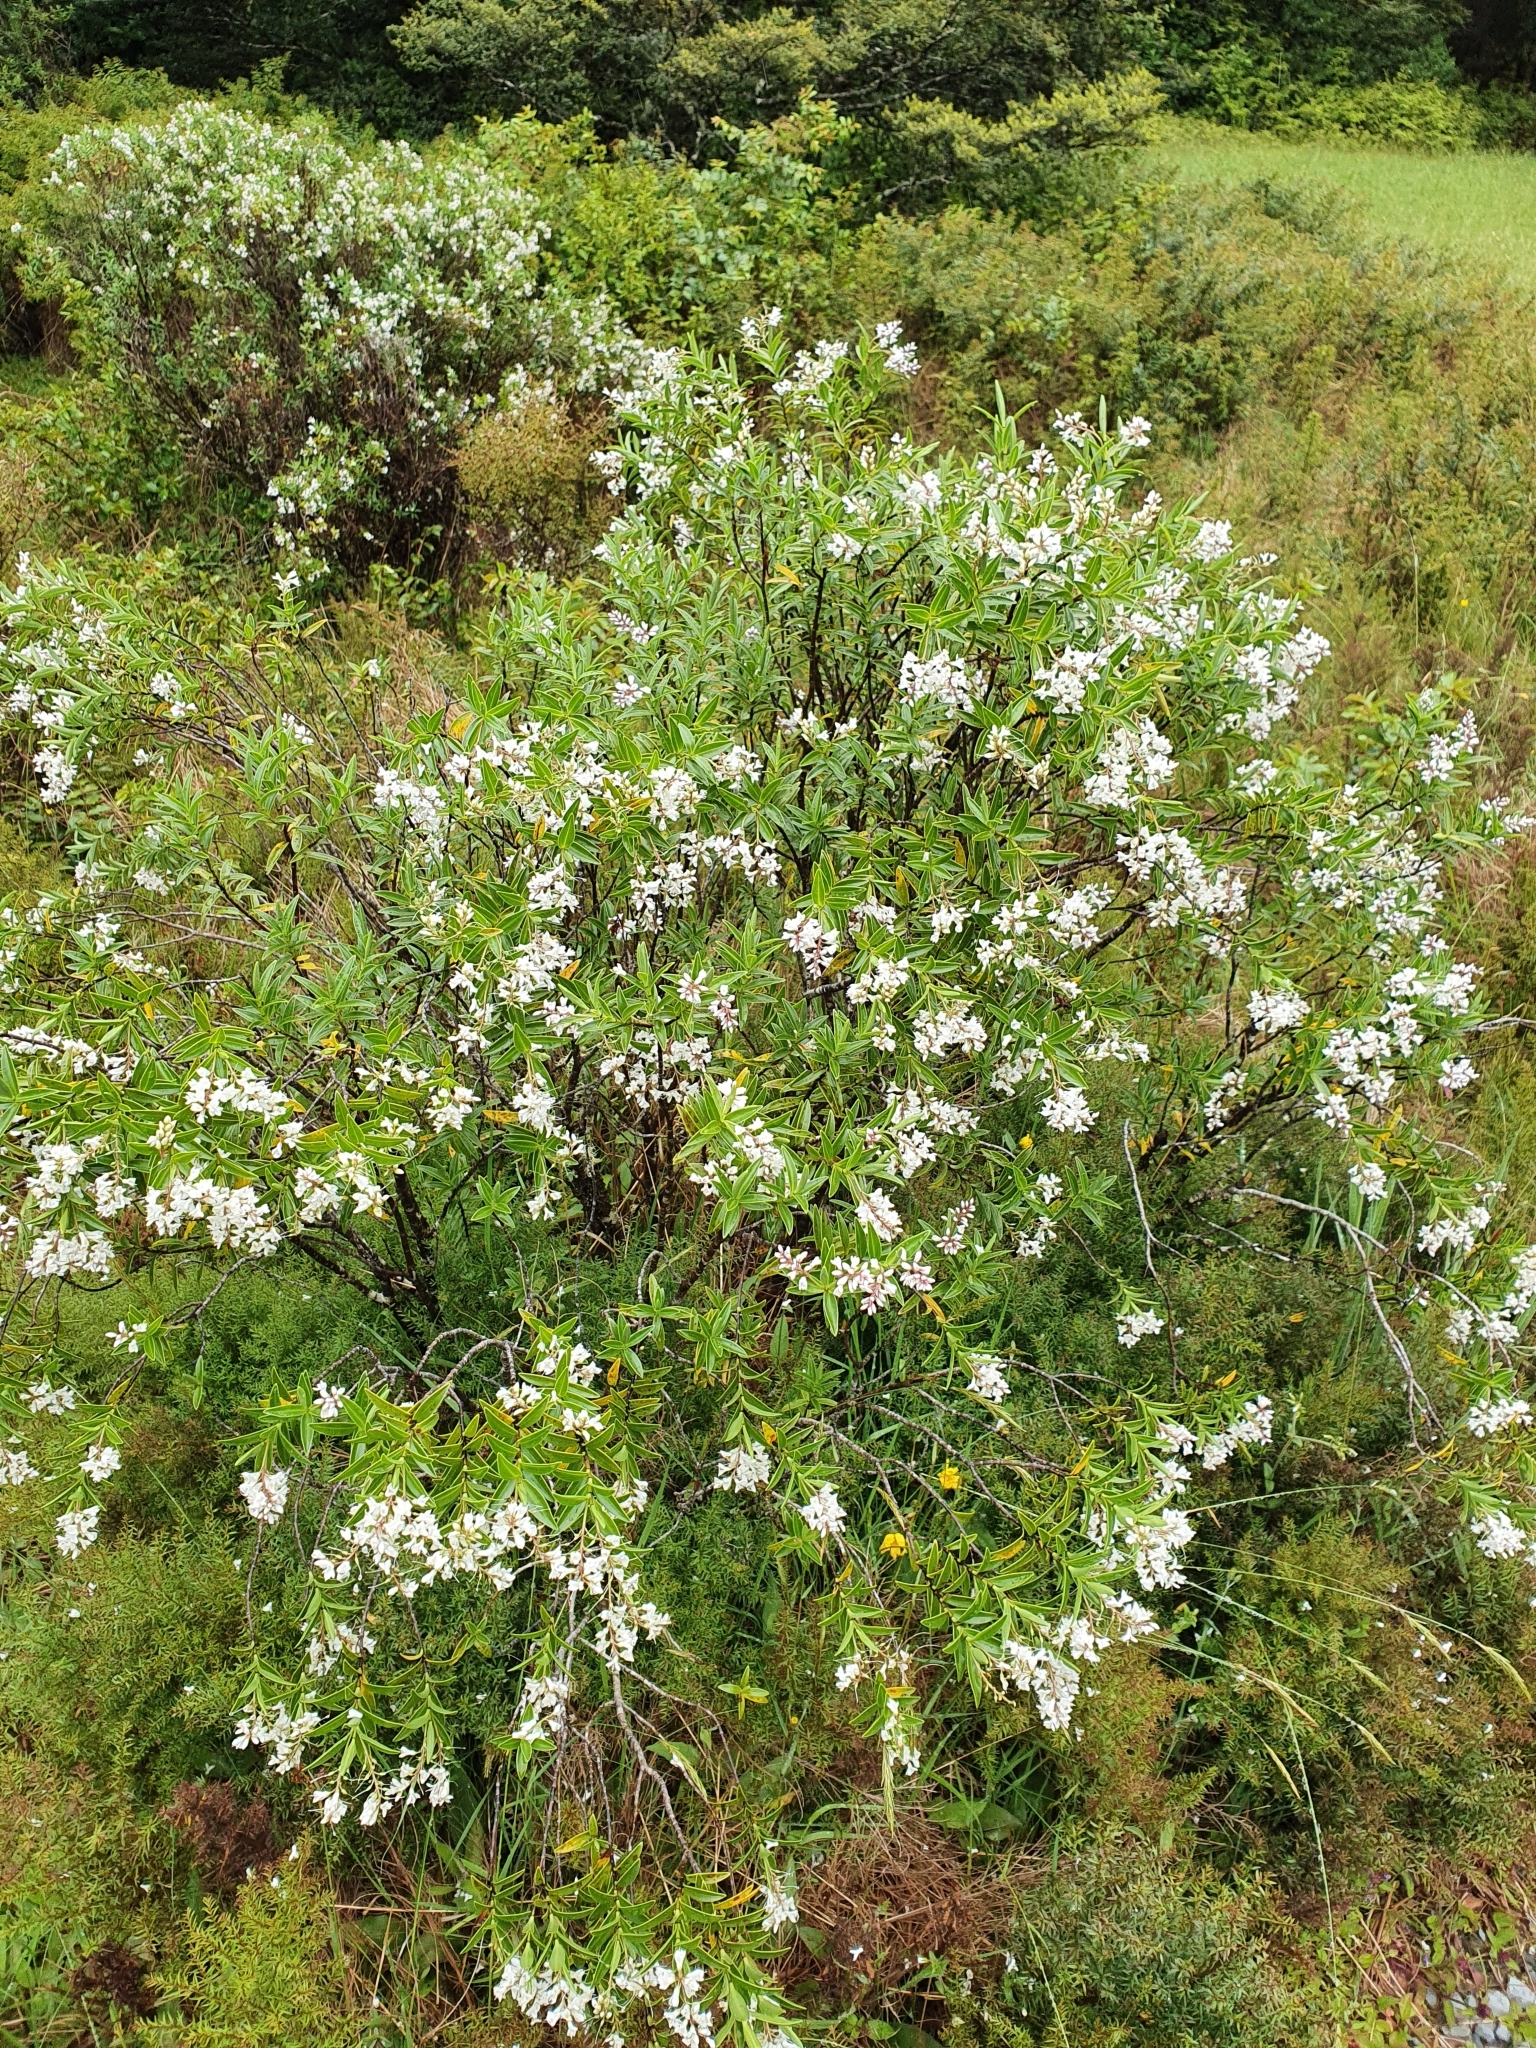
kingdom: Plantae
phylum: Tracheophyta
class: Magnoliopsida
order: Lamiales
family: Plantaginaceae
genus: Veronica
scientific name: Veronica subalpina
